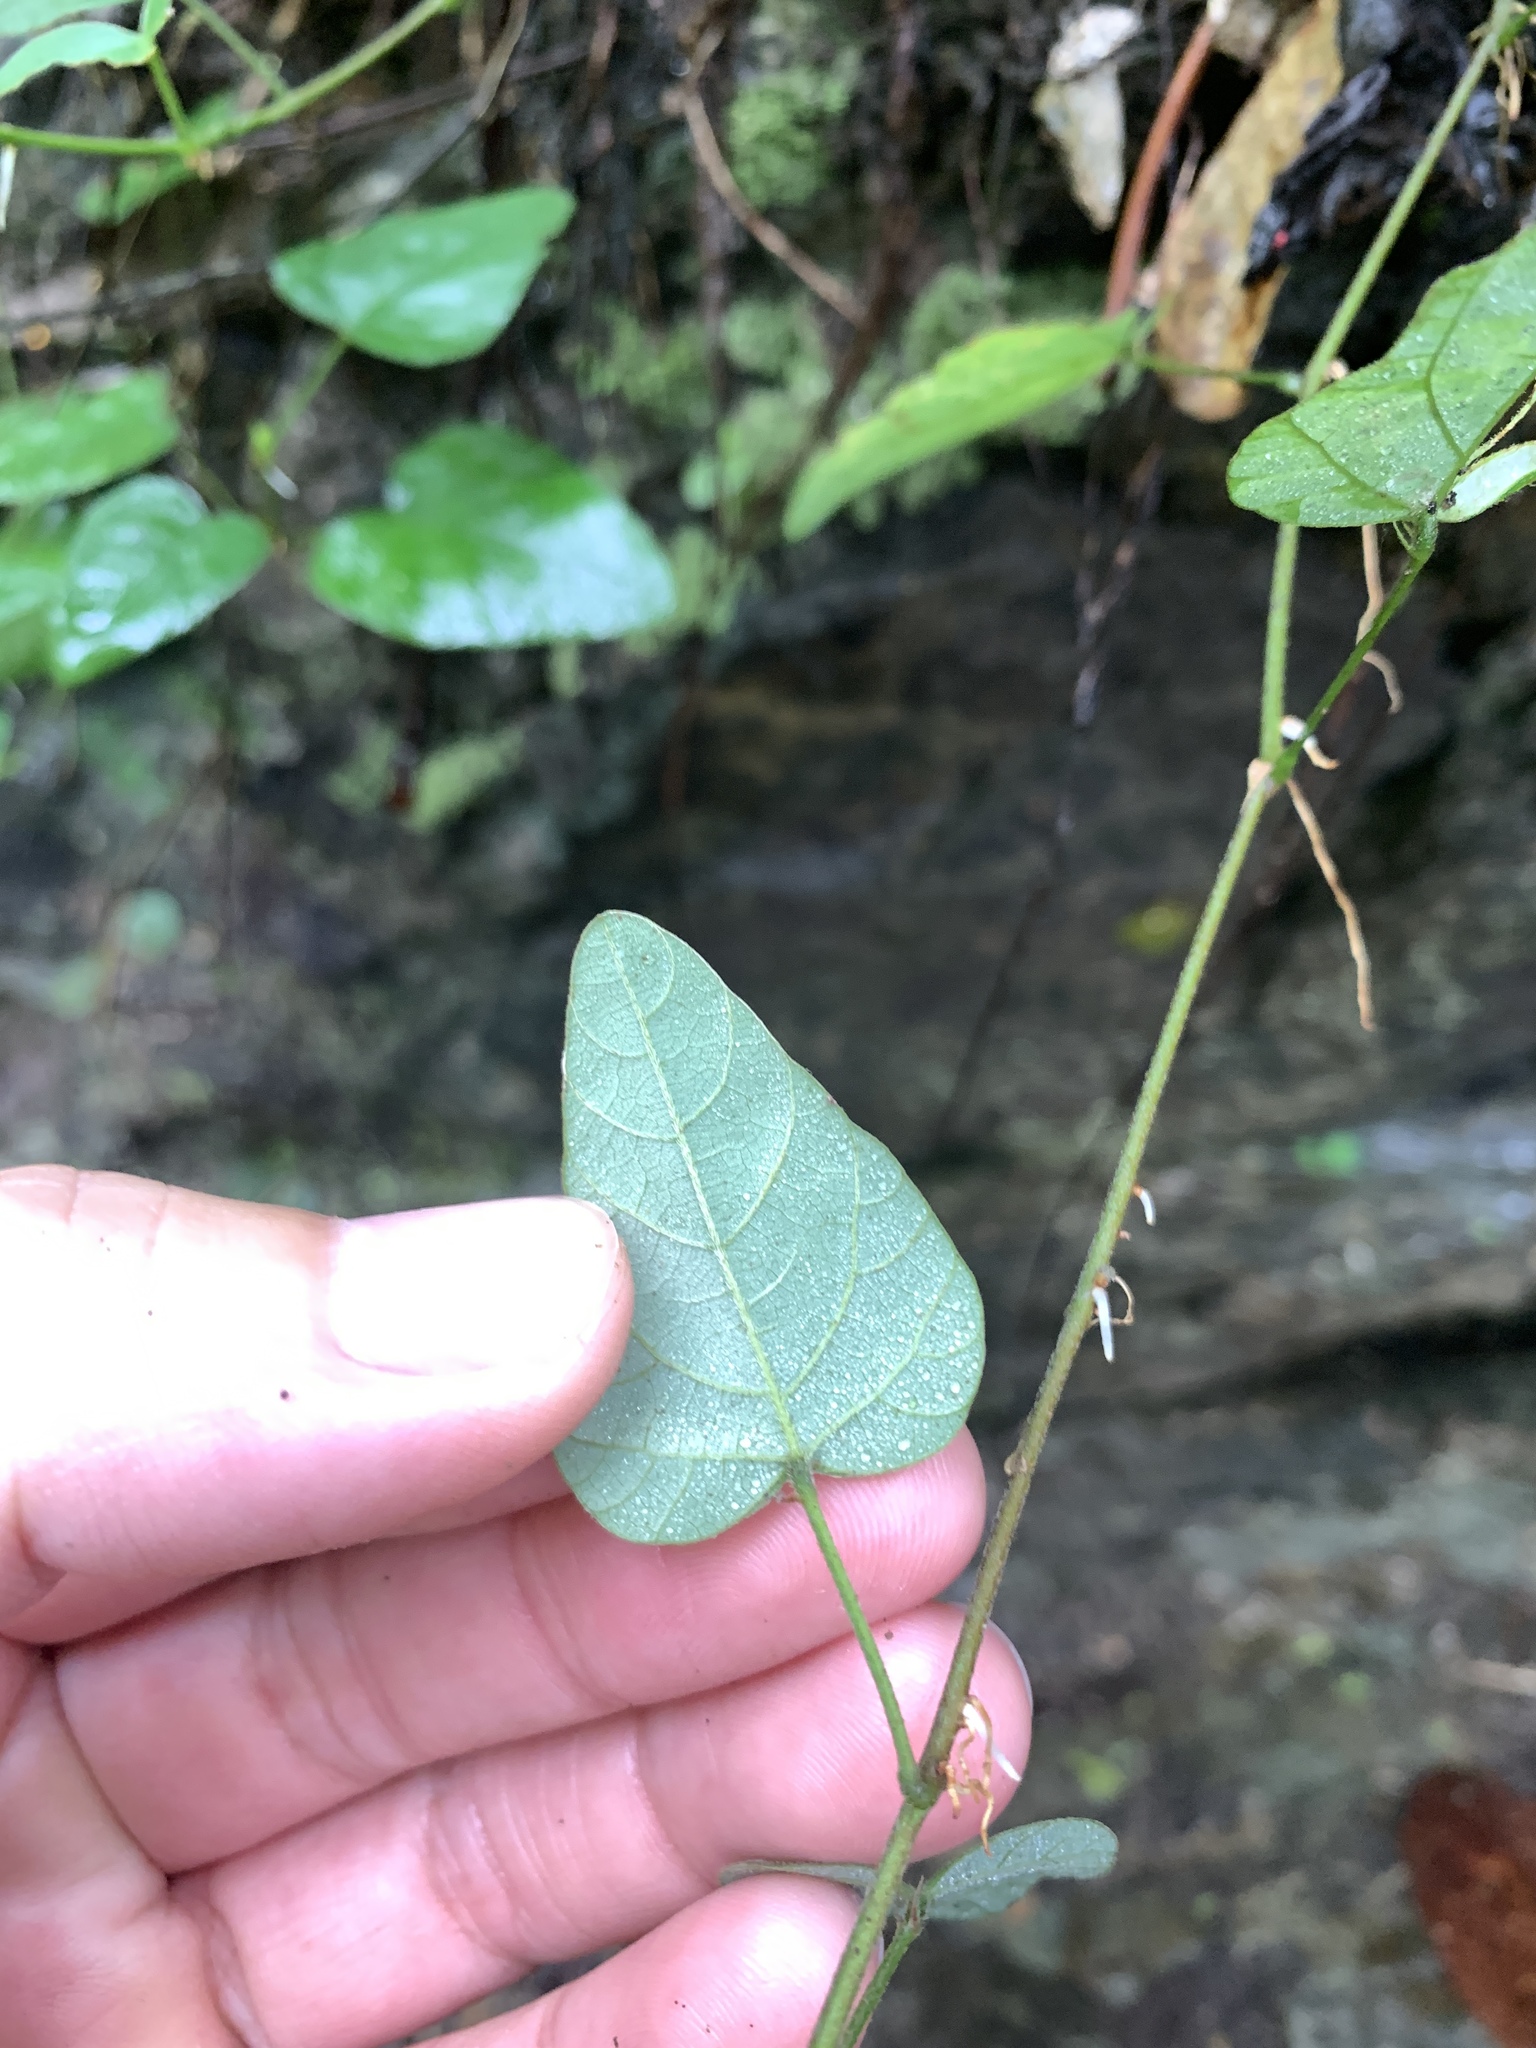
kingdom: Plantae
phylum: Tracheophyta
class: Magnoliopsida
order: Ranunculales
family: Menispermaceae
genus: Cyclea
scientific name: Cyclea gracillima
